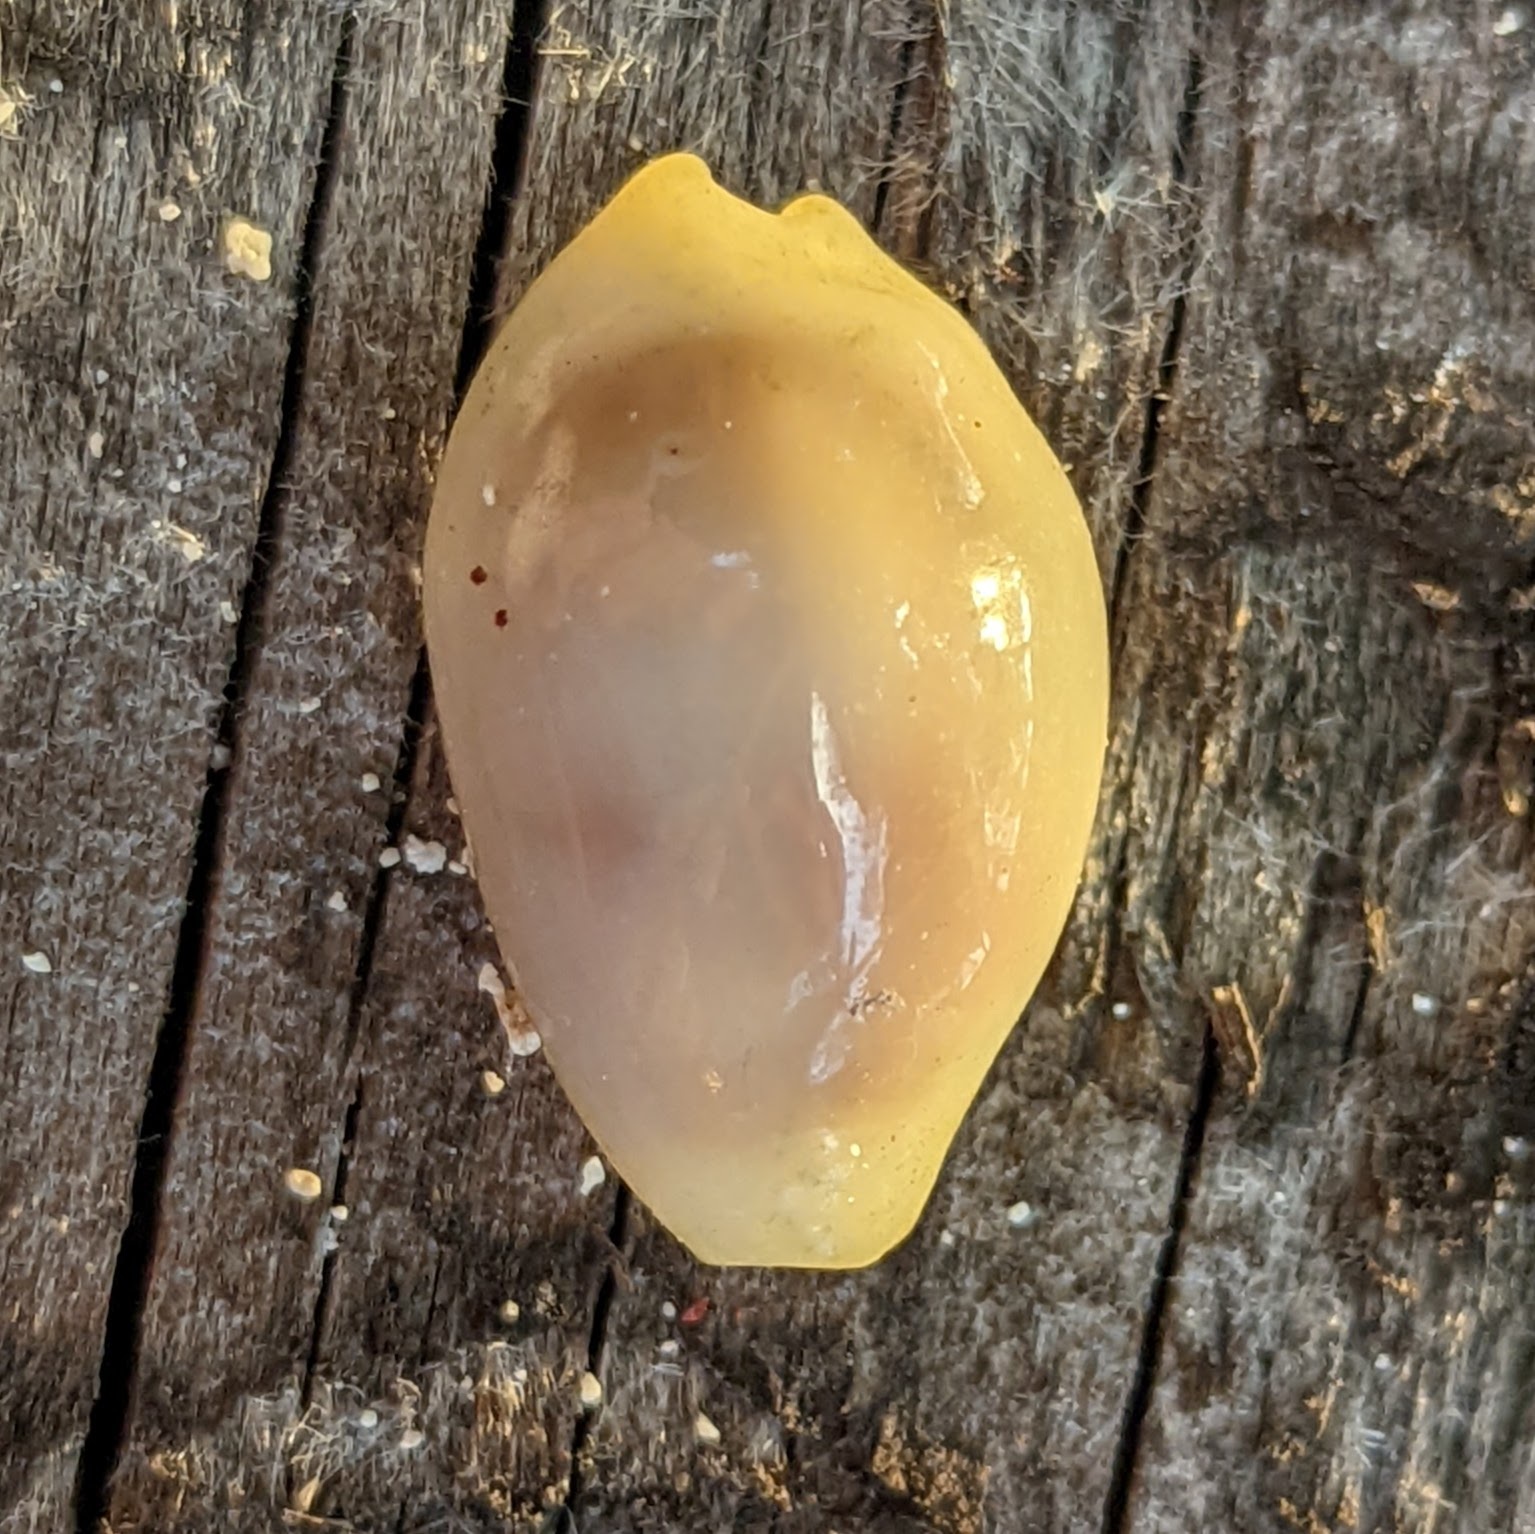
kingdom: Animalia
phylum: Mollusca
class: Gastropoda
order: Littorinimorpha
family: Cypraeidae
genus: Monetaria
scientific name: Monetaria moneta
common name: Money cowrie
